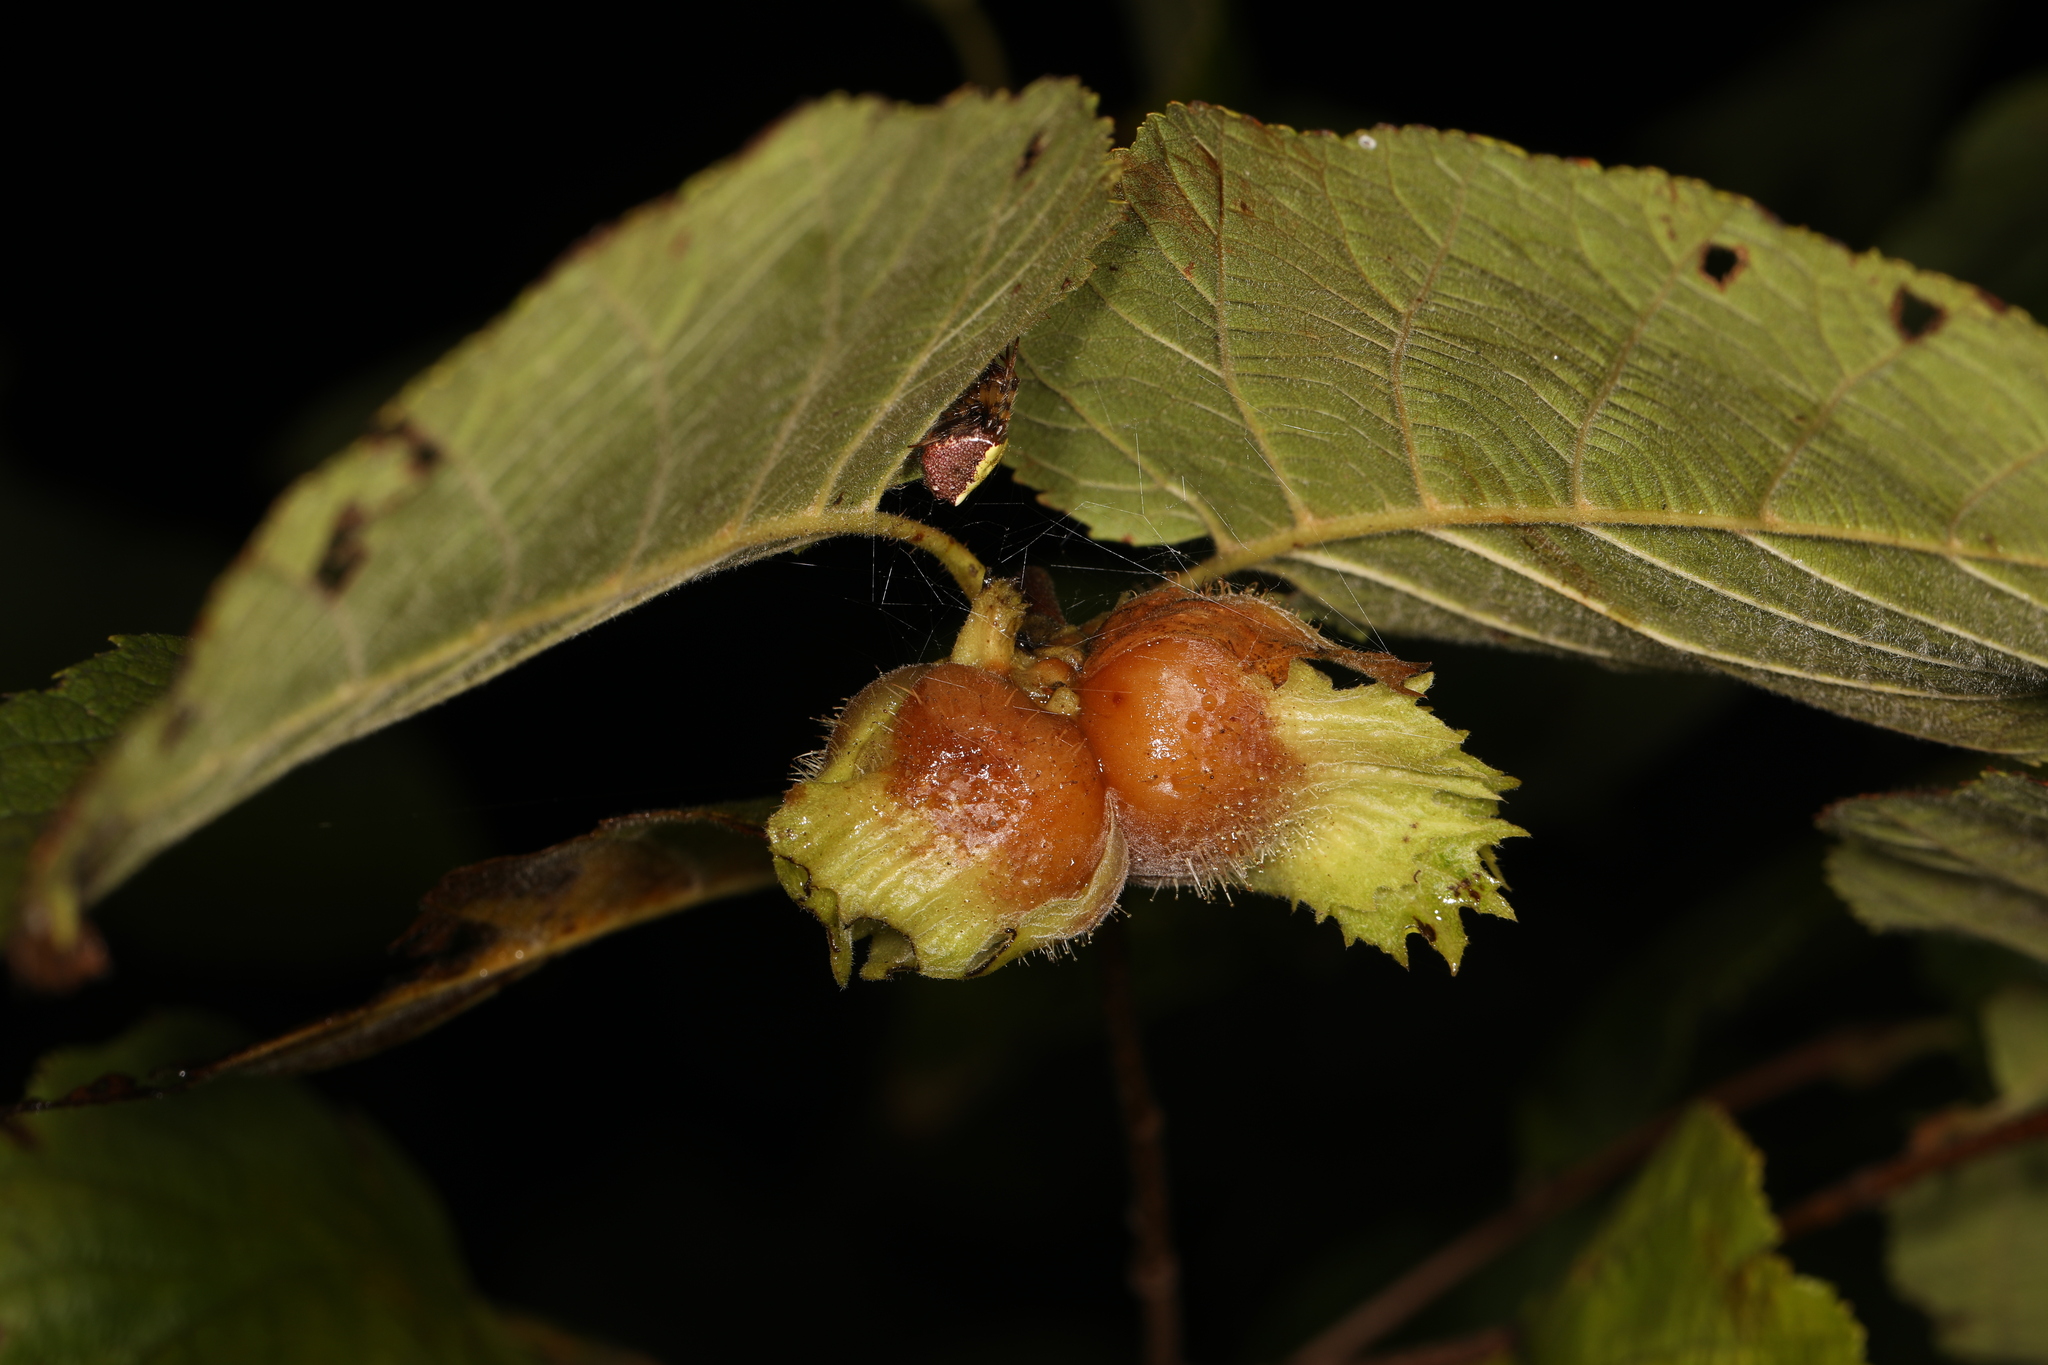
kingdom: Plantae
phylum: Tracheophyta
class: Magnoliopsida
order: Fagales
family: Betulaceae
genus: Corylus
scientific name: Corylus americana
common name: American hazel
